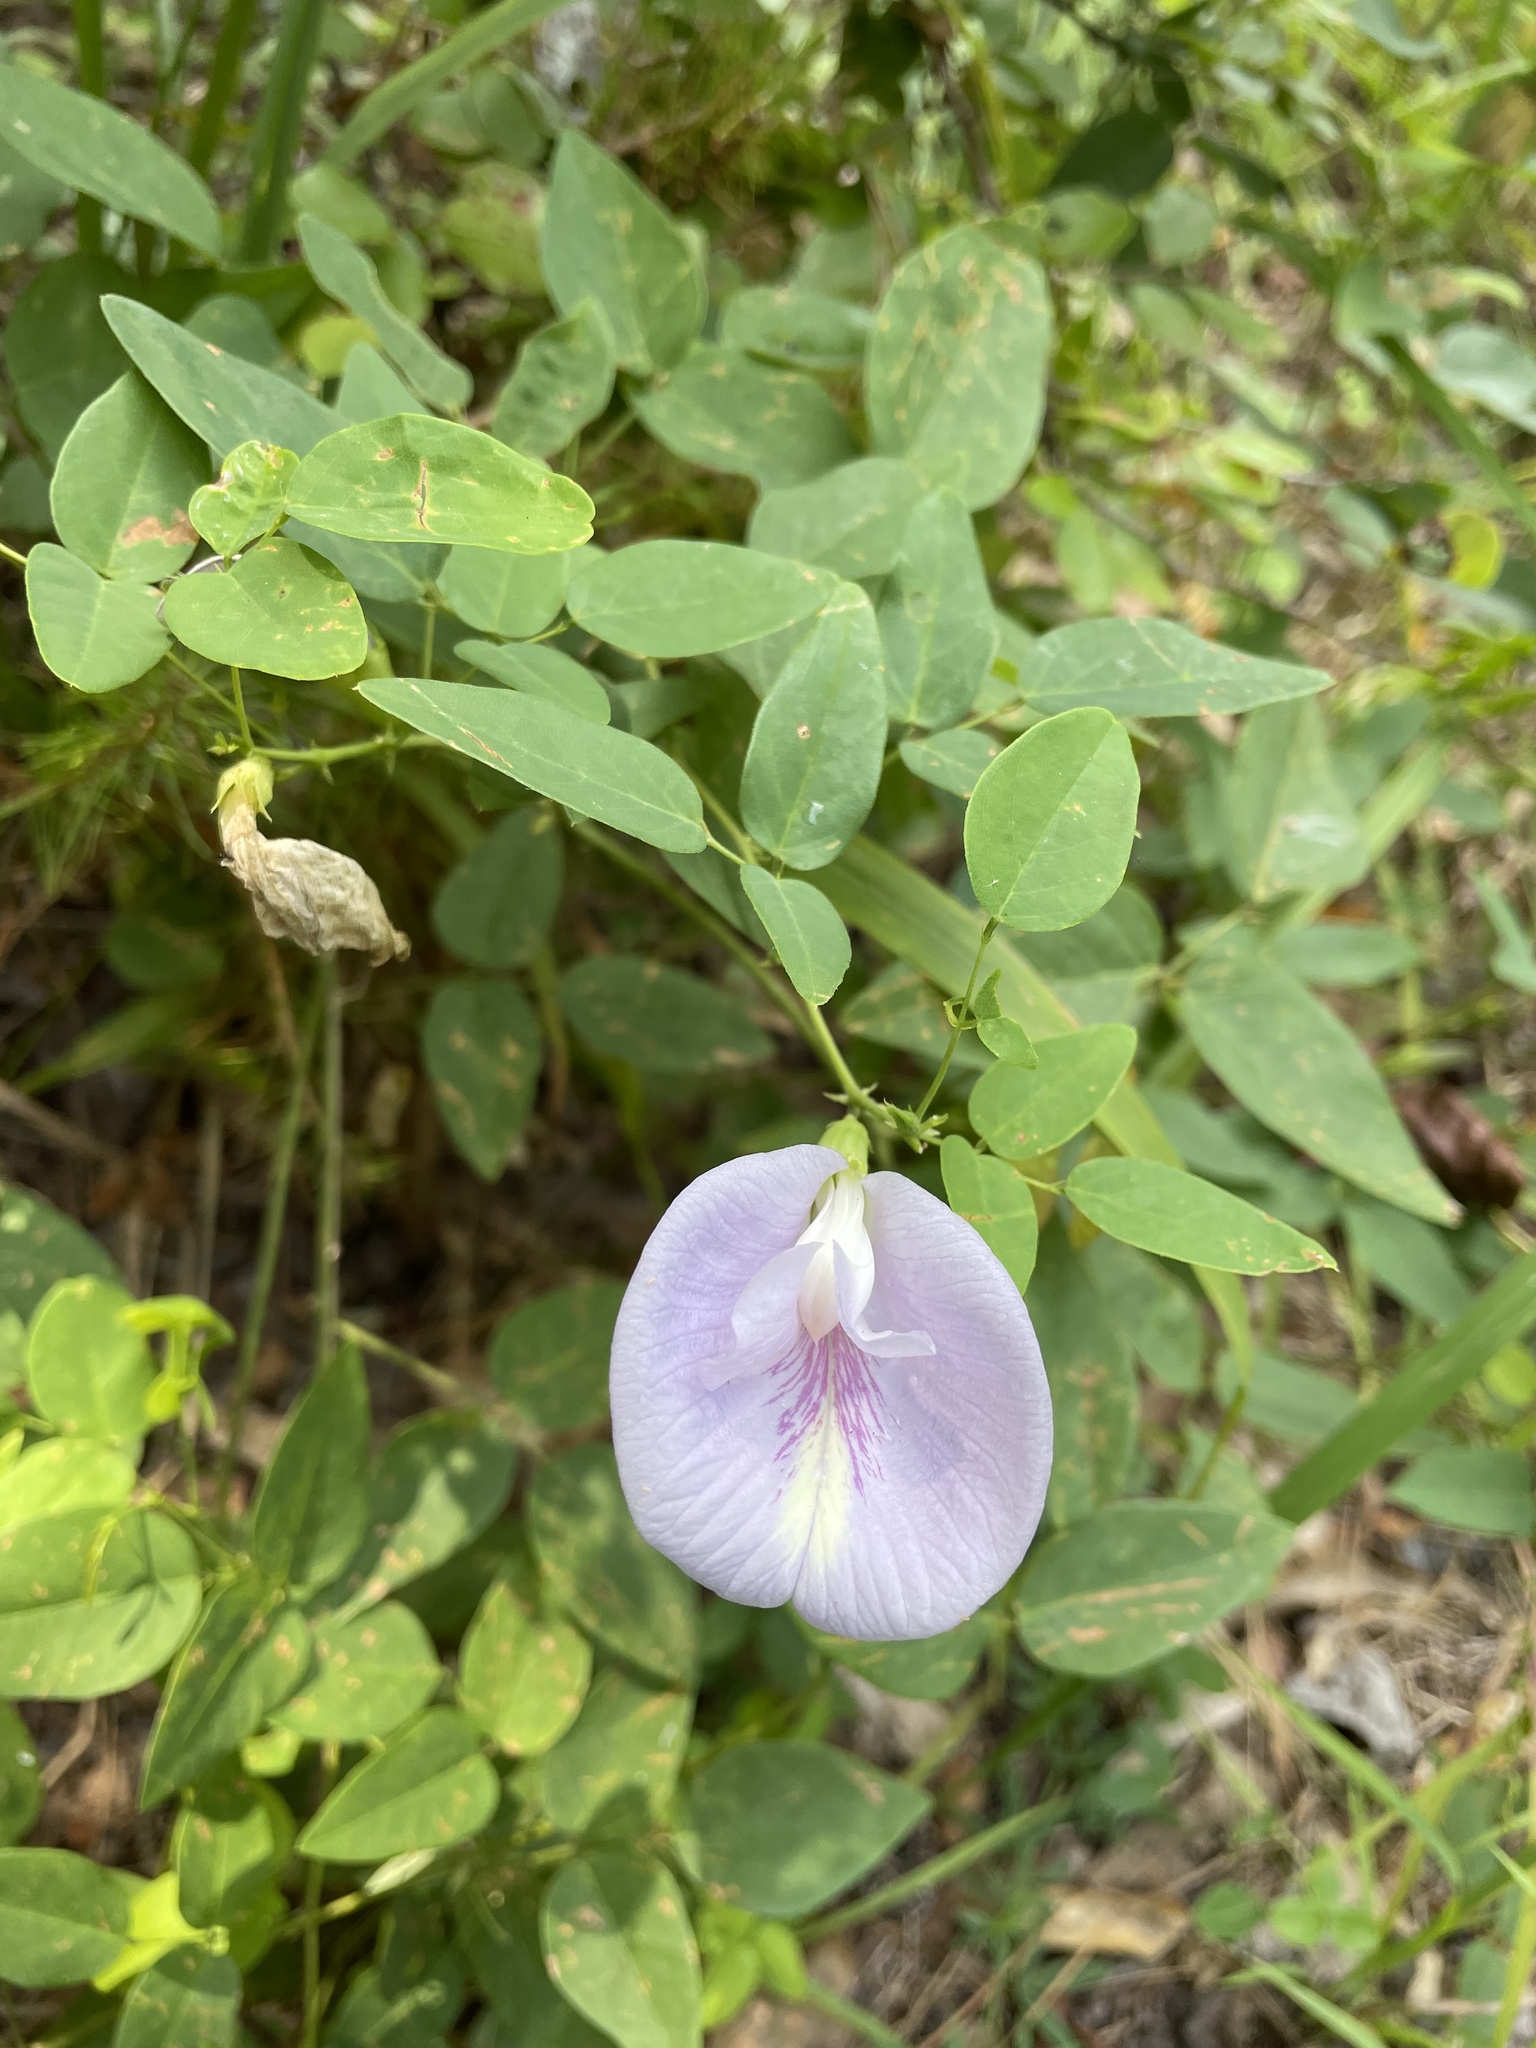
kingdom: Plantae
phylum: Tracheophyta
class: Magnoliopsida
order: Fabales
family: Fabaceae
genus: Clitoria
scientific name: Clitoria mariana
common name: Butterfly-pea
